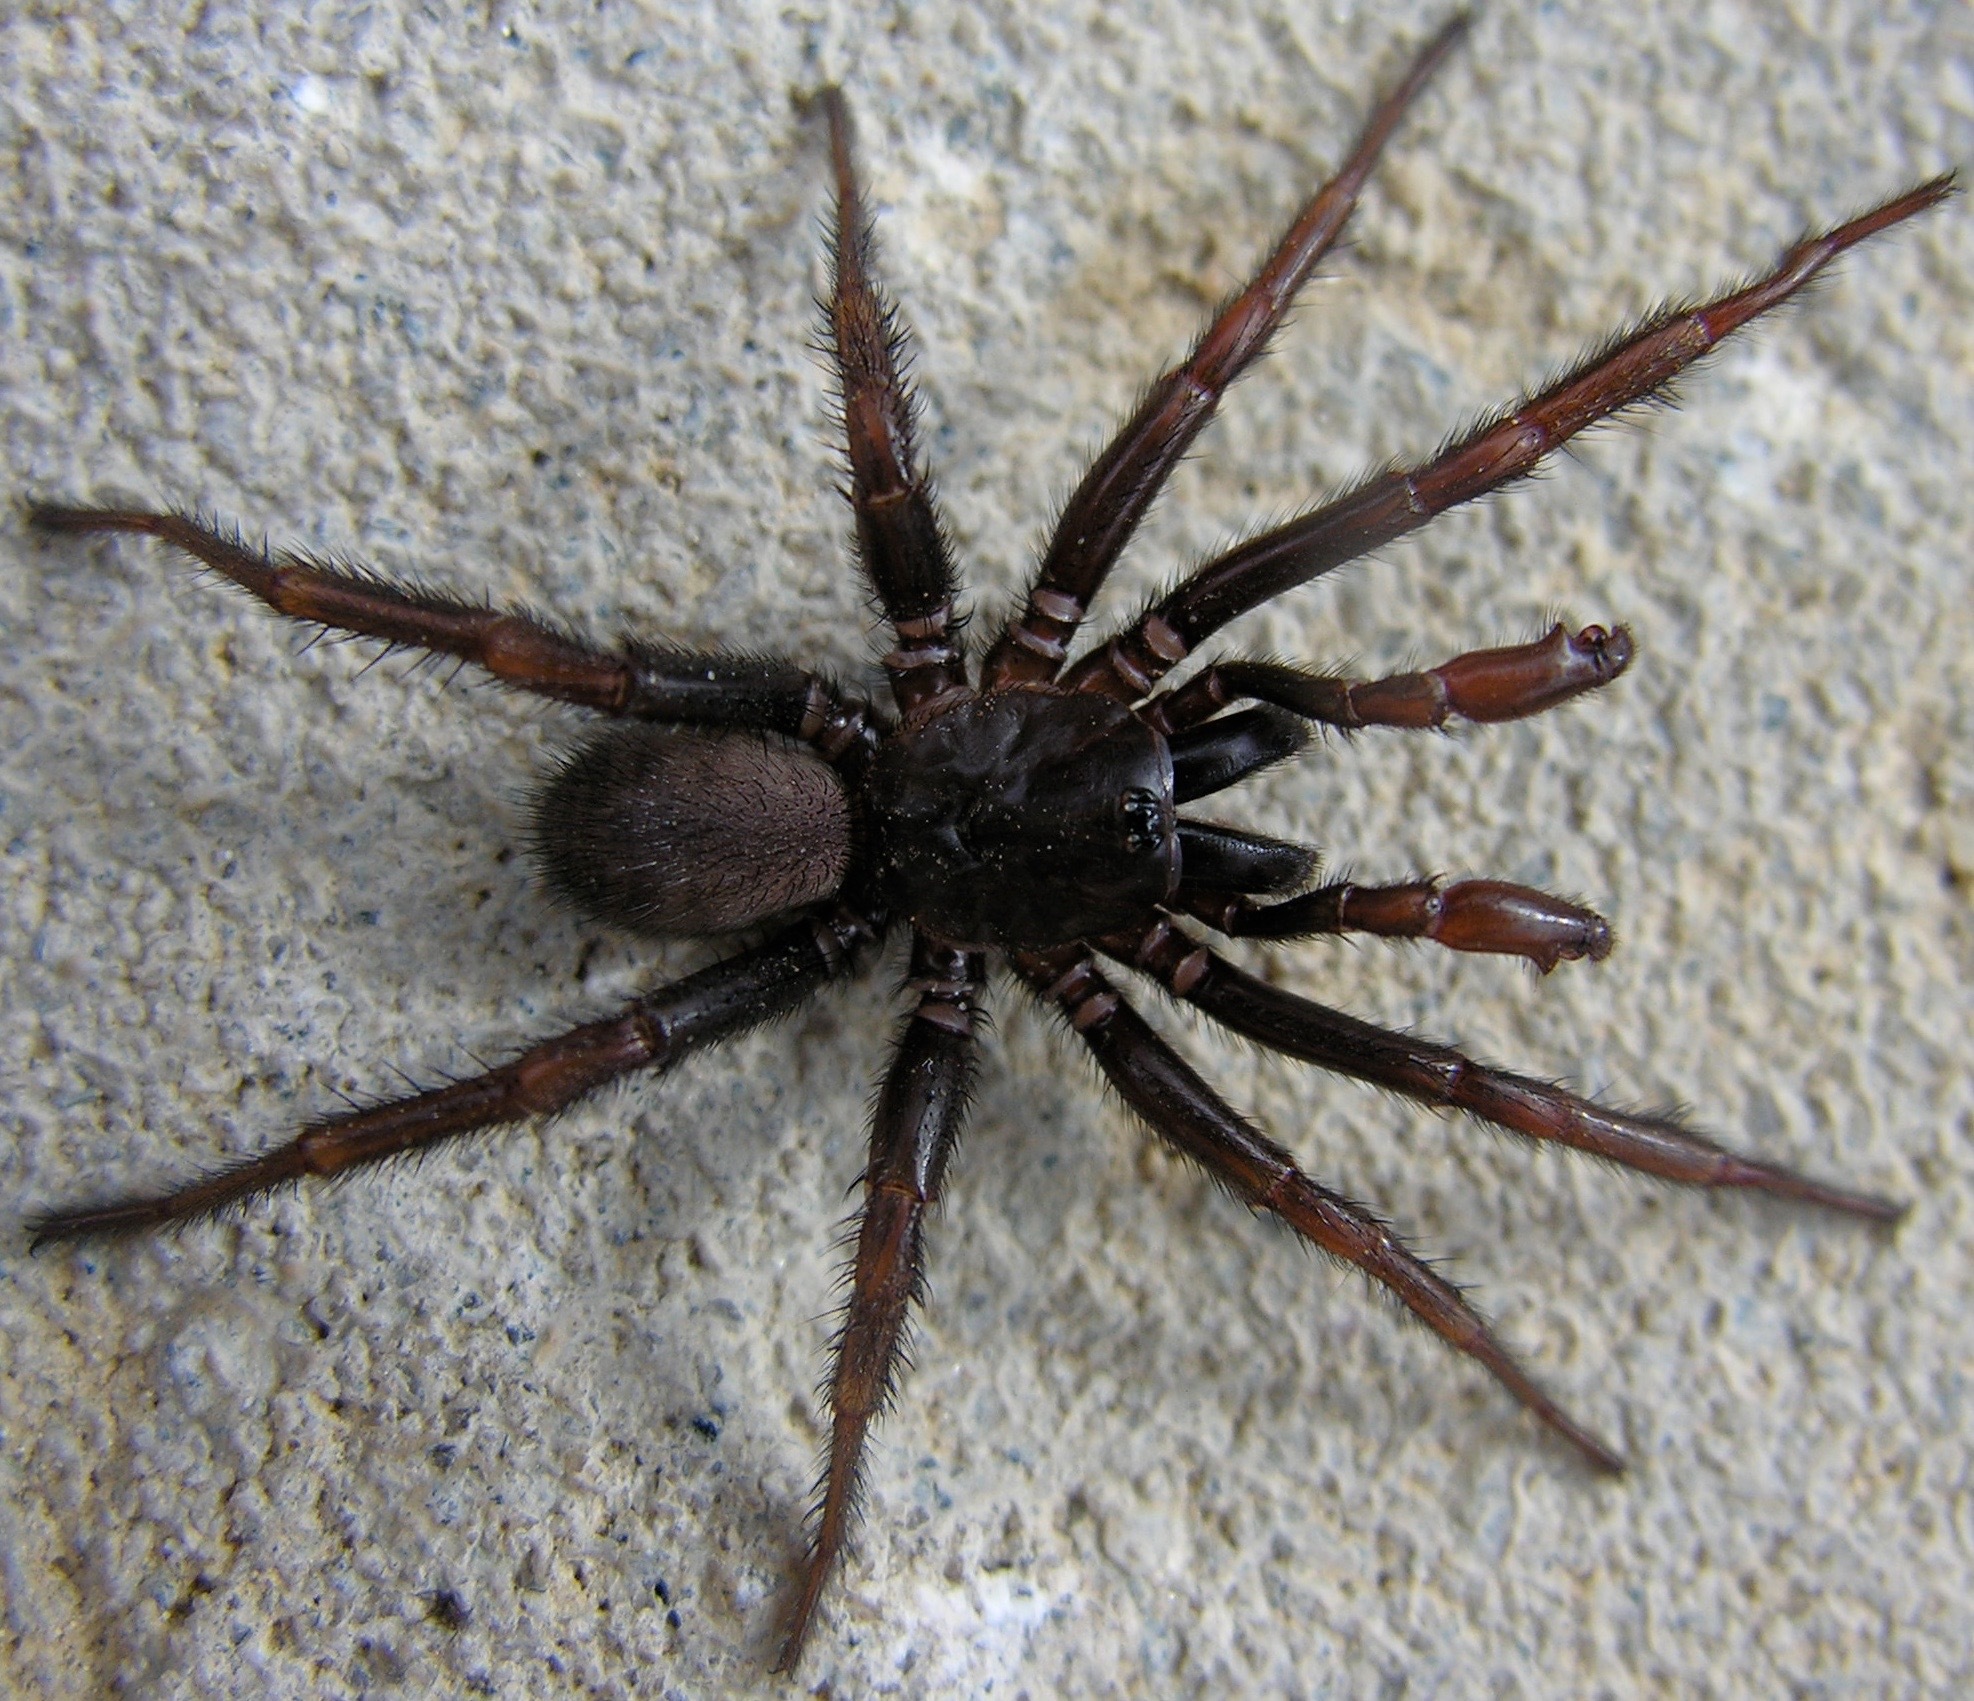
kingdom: Animalia
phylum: Arthropoda
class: Arachnida
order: Araneae
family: Euctenizidae
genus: Myrmekiaphila
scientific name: Myrmekiaphila
